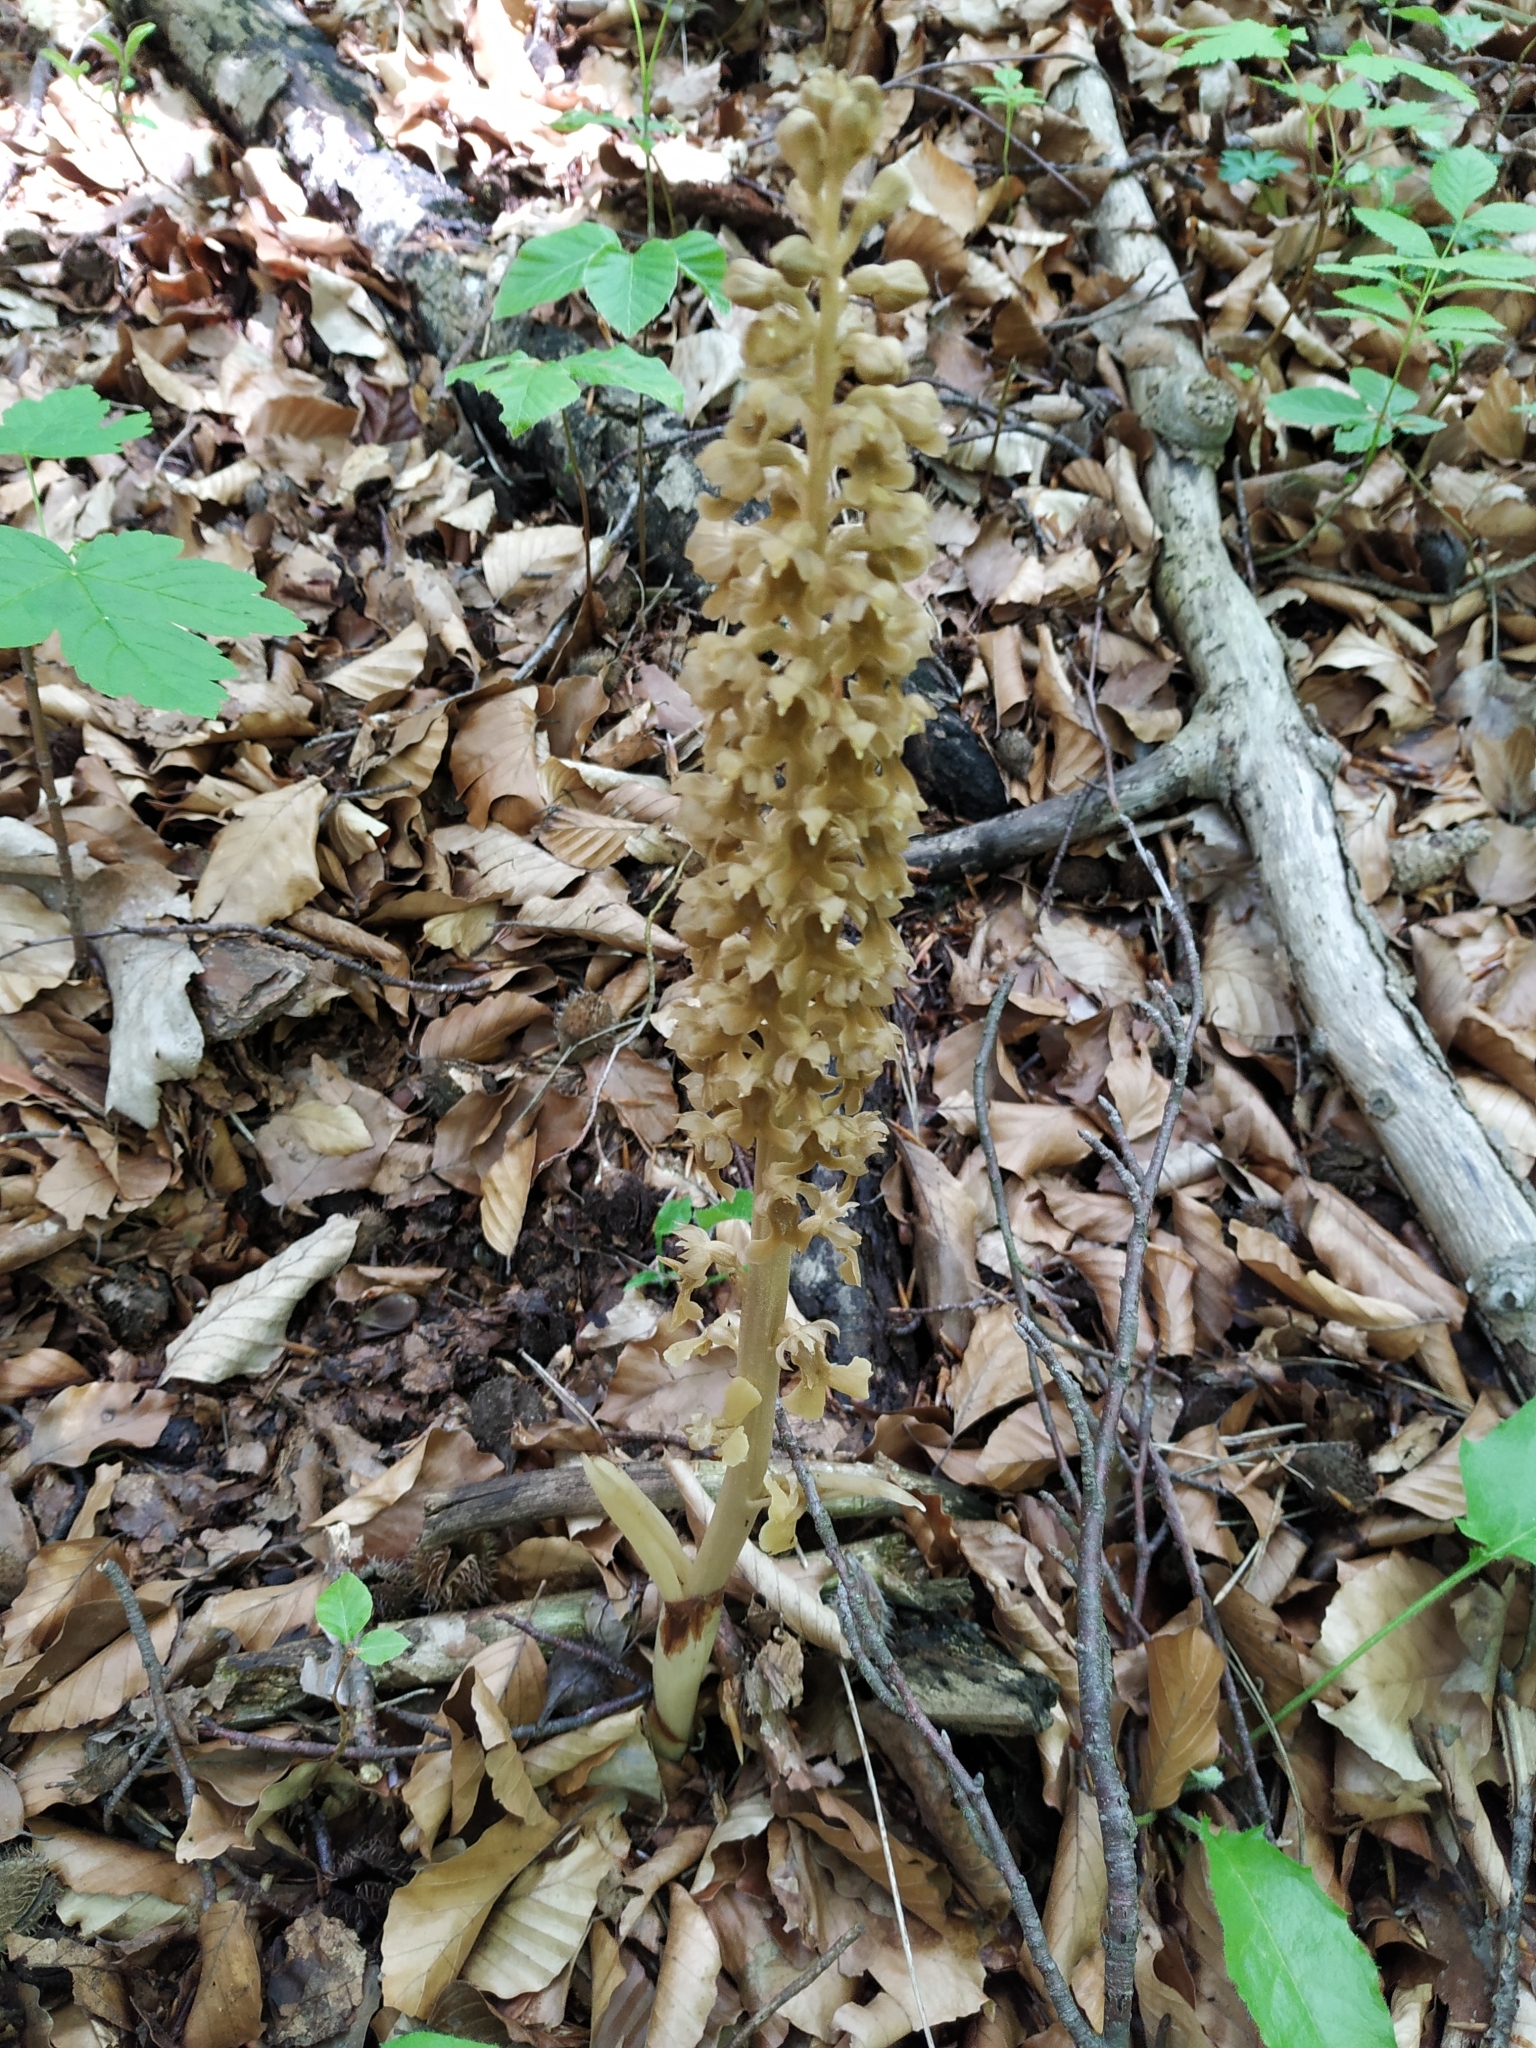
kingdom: Plantae
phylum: Tracheophyta
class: Liliopsida
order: Asparagales
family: Orchidaceae
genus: Neottia
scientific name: Neottia nidus-avis
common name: Bird's-nest orchid
